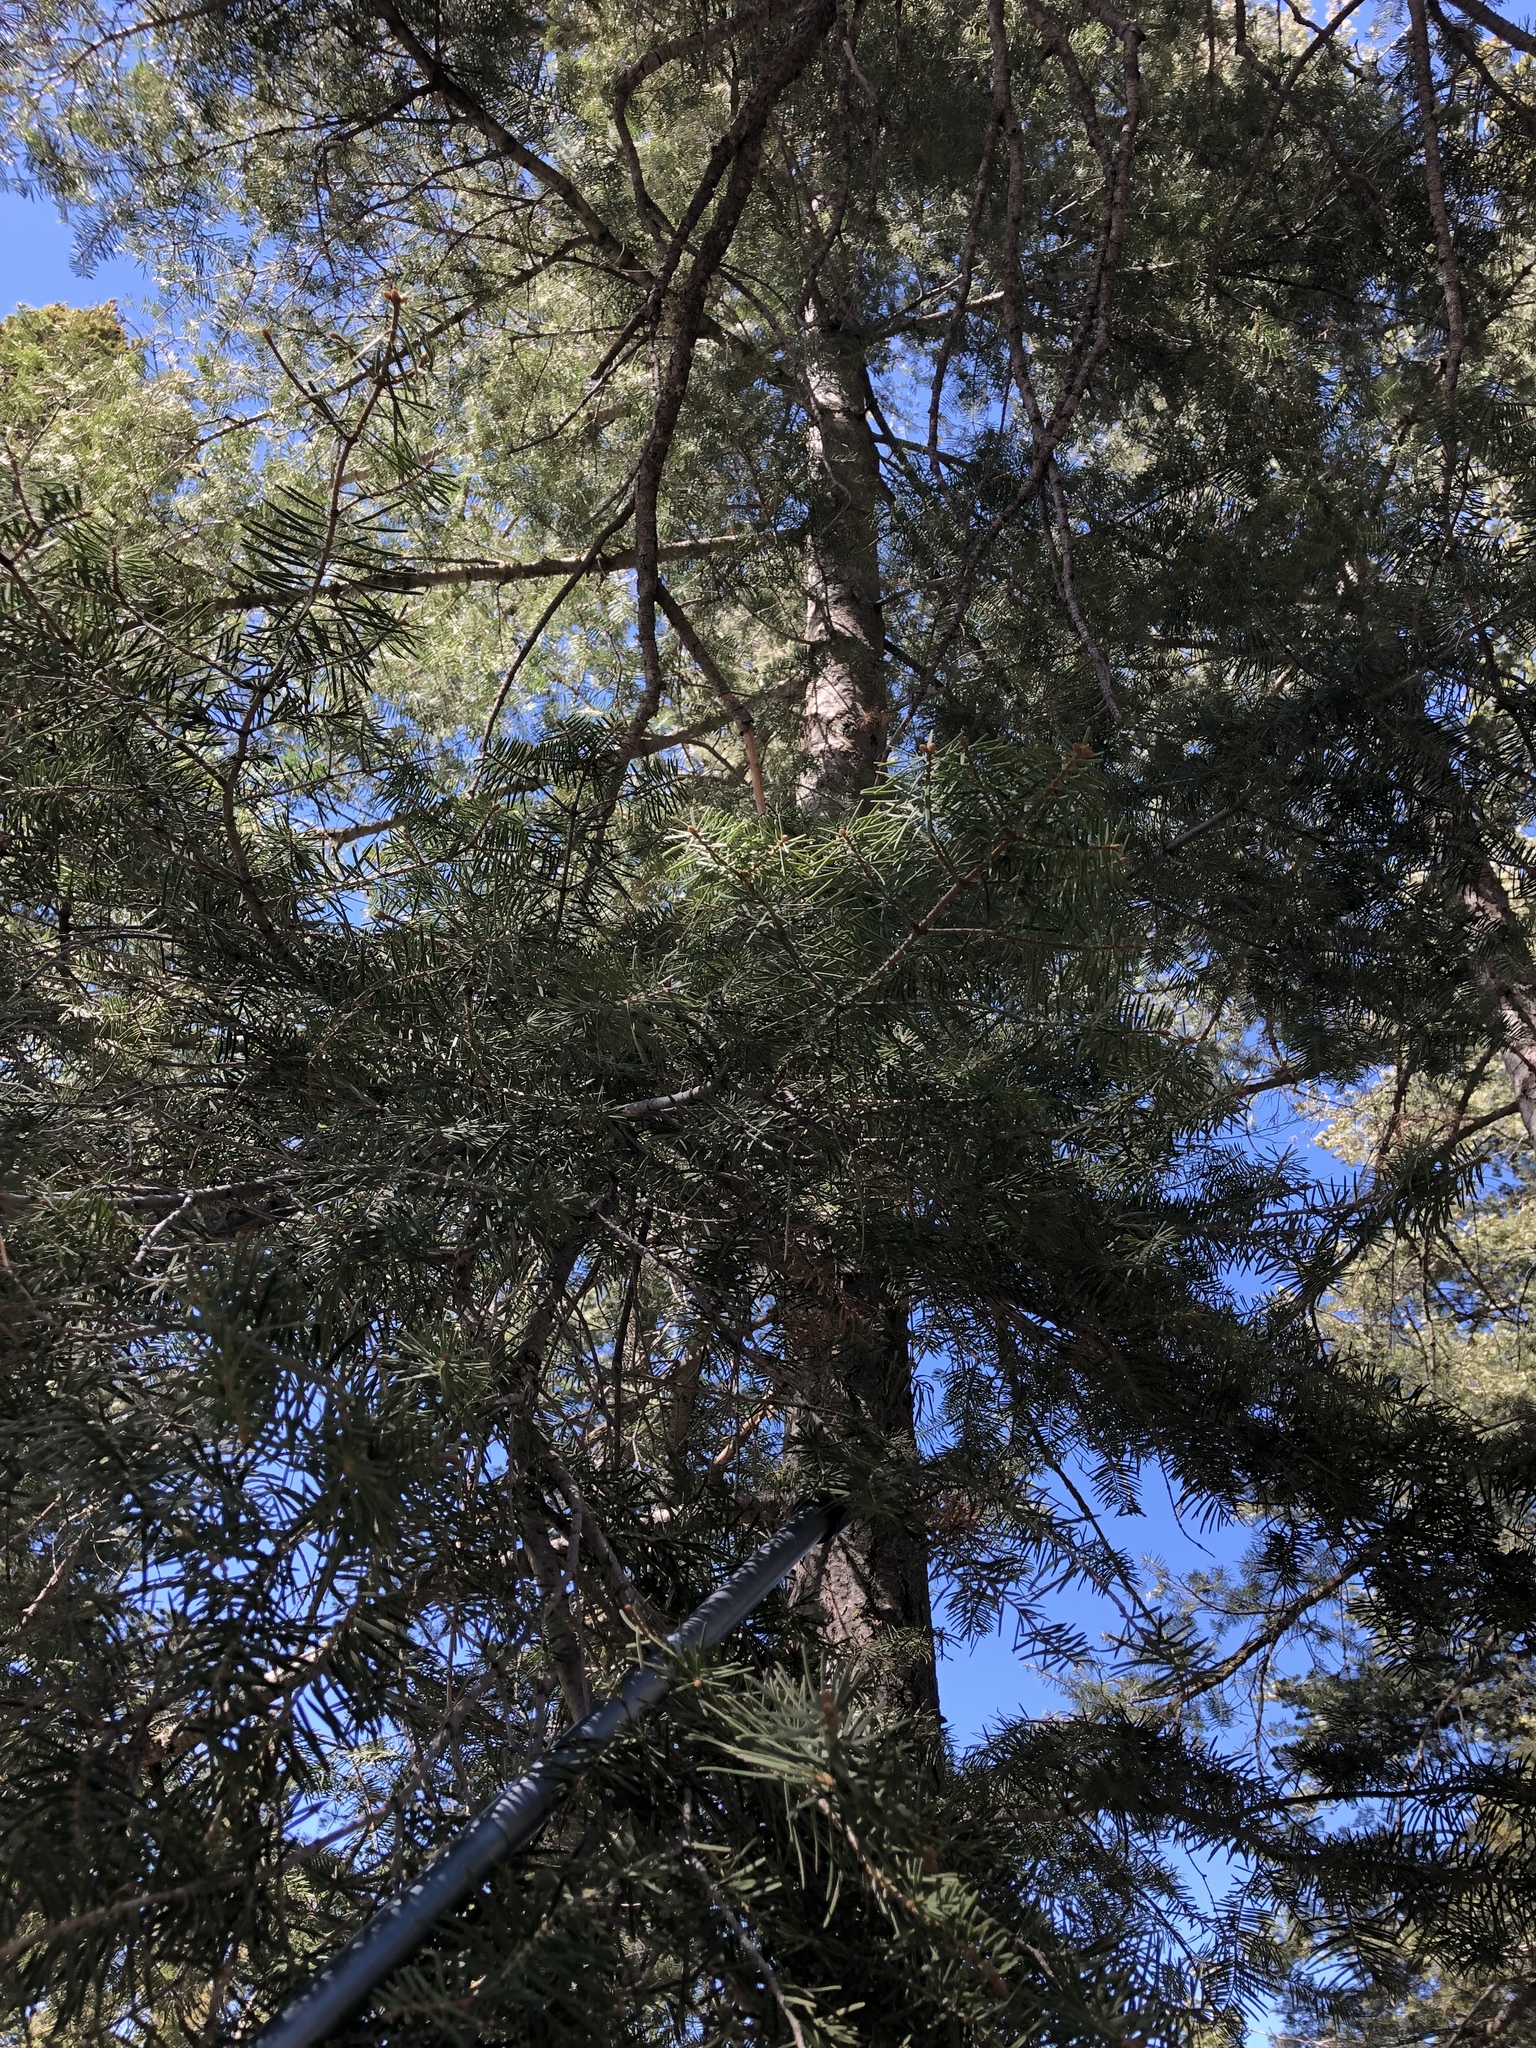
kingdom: Plantae
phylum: Tracheophyta
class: Pinopsida
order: Pinales
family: Pinaceae
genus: Abies
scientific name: Abies concolor
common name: Colorado fir
